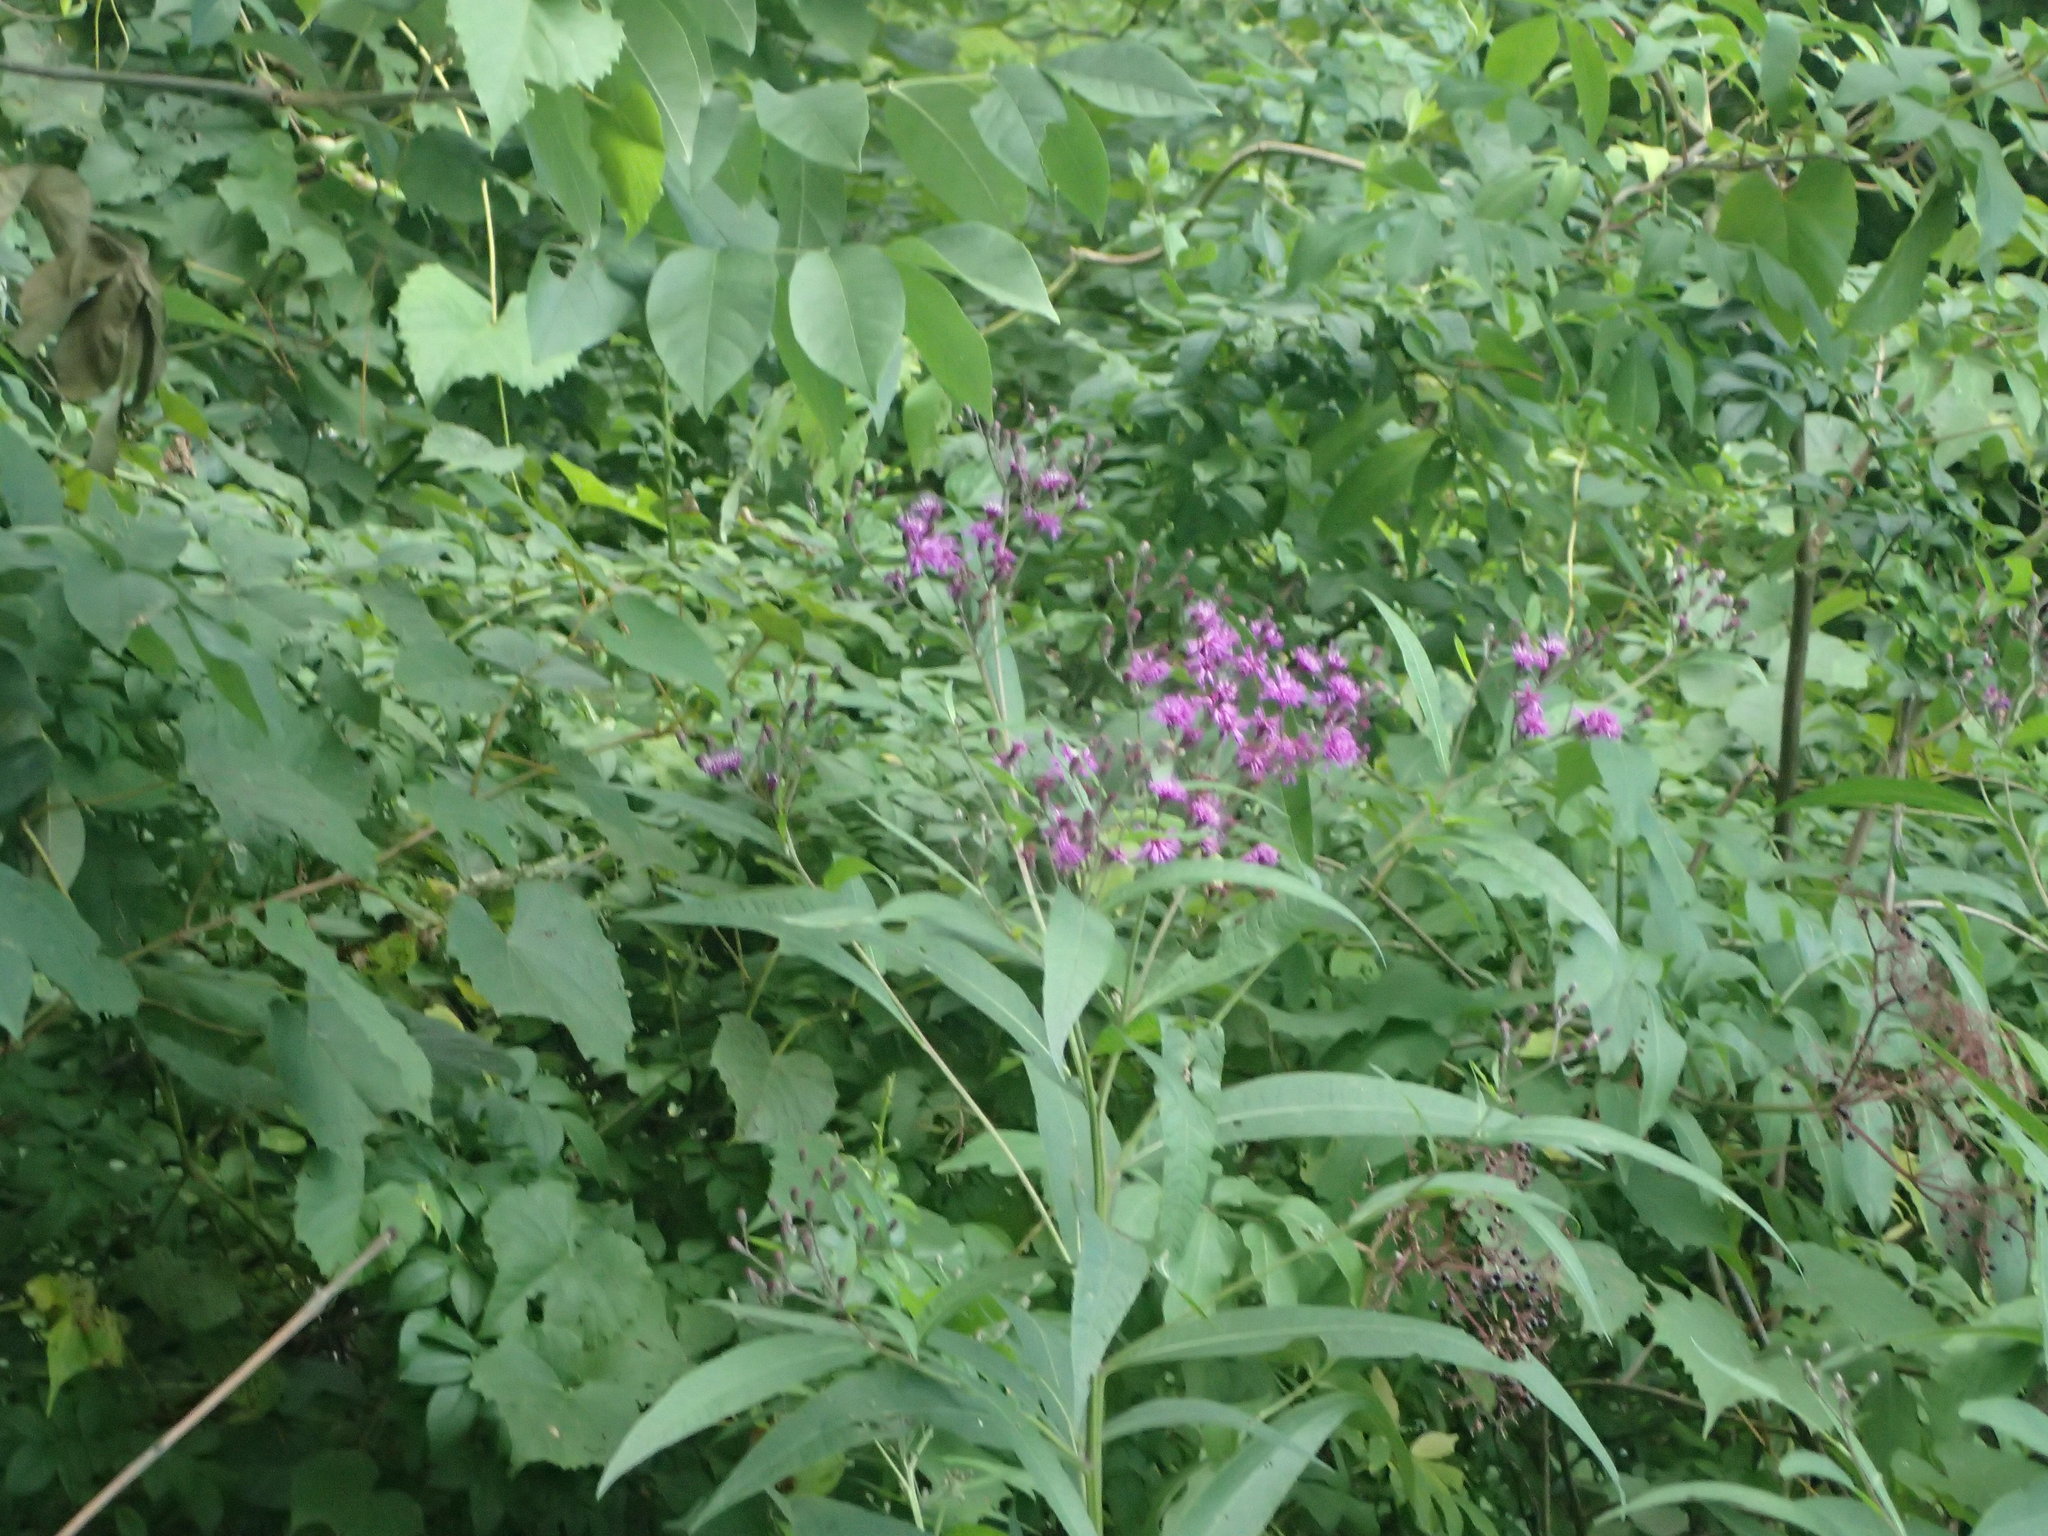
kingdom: Plantae
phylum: Tracheophyta
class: Magnoliopsida
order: Asterales
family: Asteraceae
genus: Vernonia
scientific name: Vernonia gigantea
